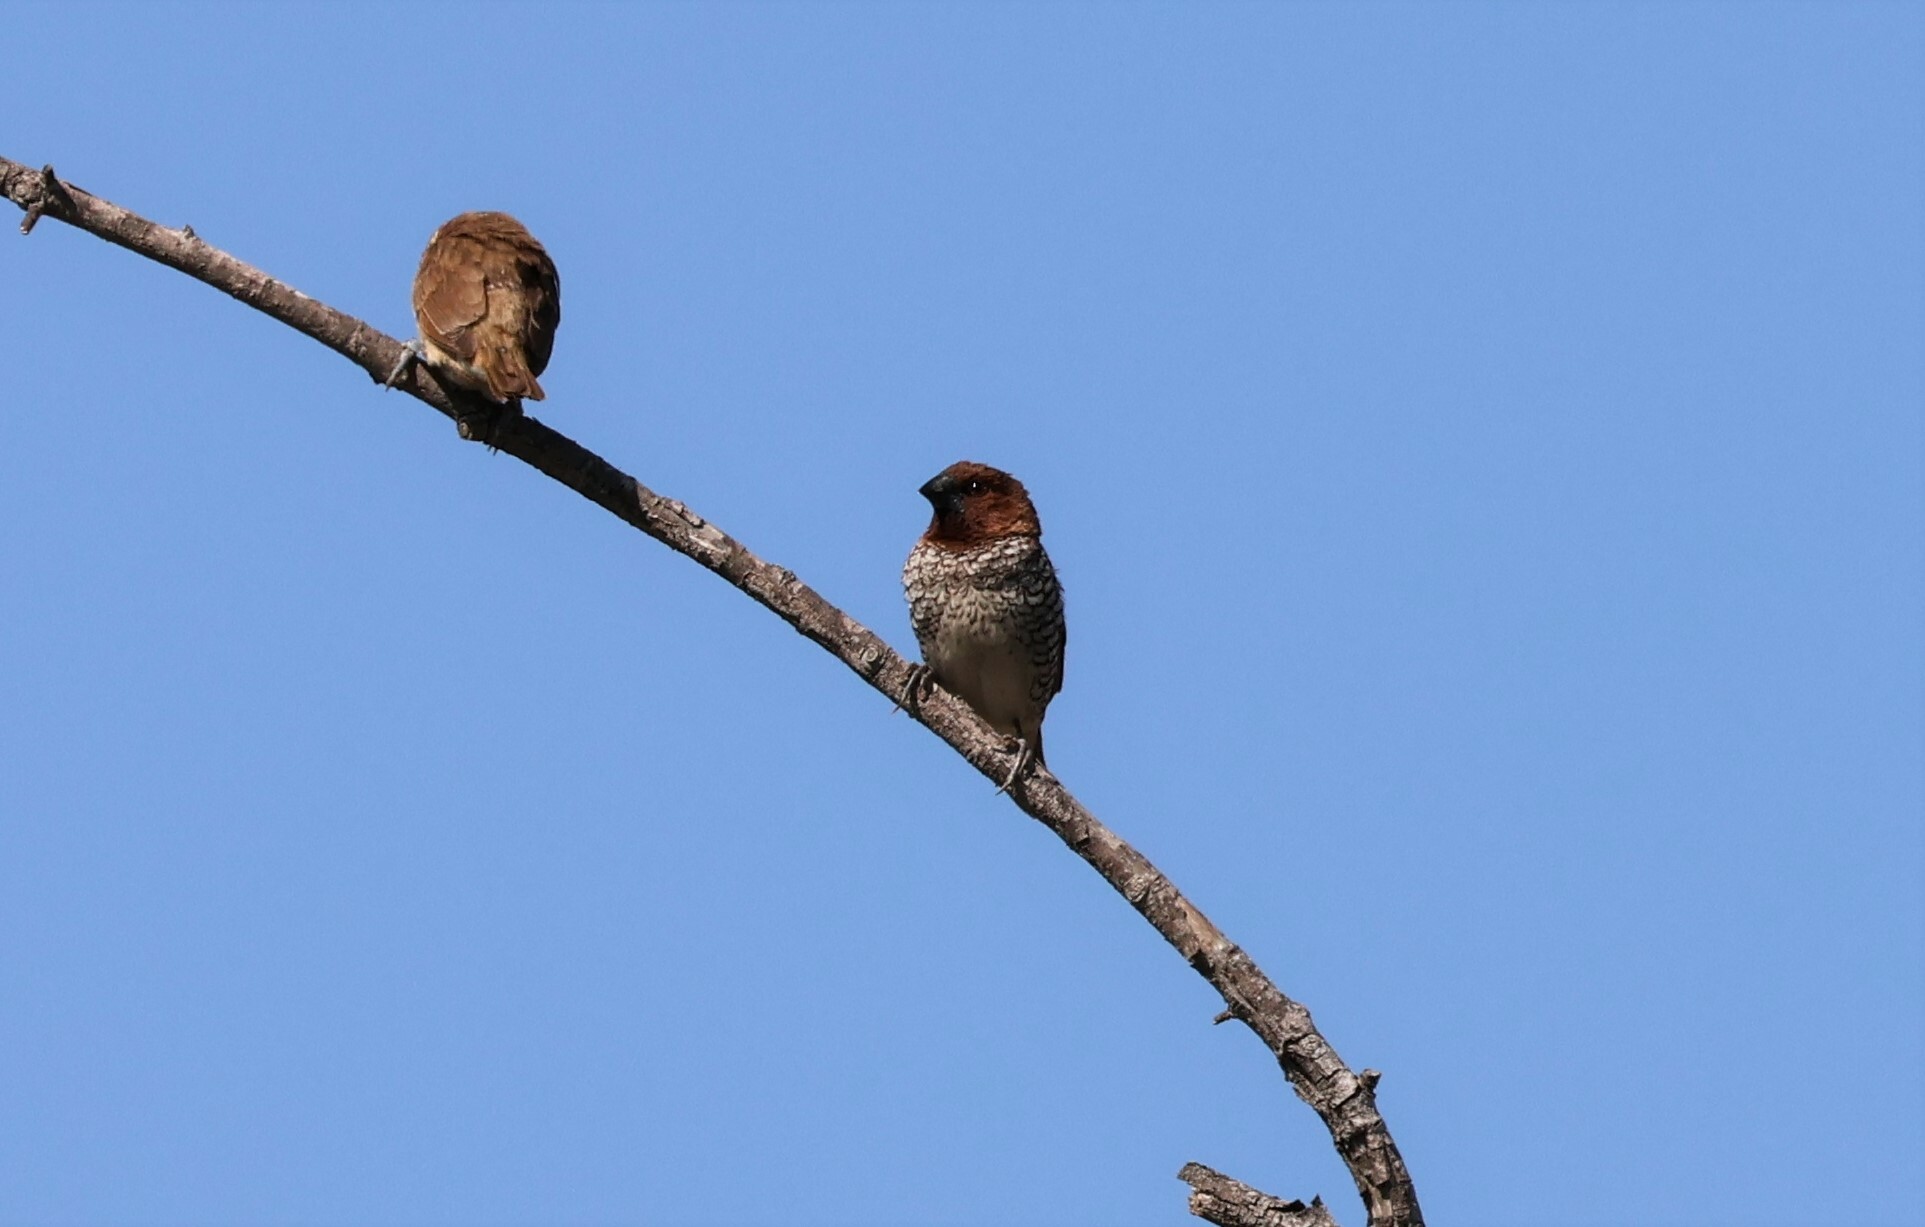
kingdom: Animalia
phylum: Chordata
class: Aves
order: Passeriformes
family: Estrildidae
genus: Lonchura
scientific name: Lonchura punctulata
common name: Scaly-breasted munia
